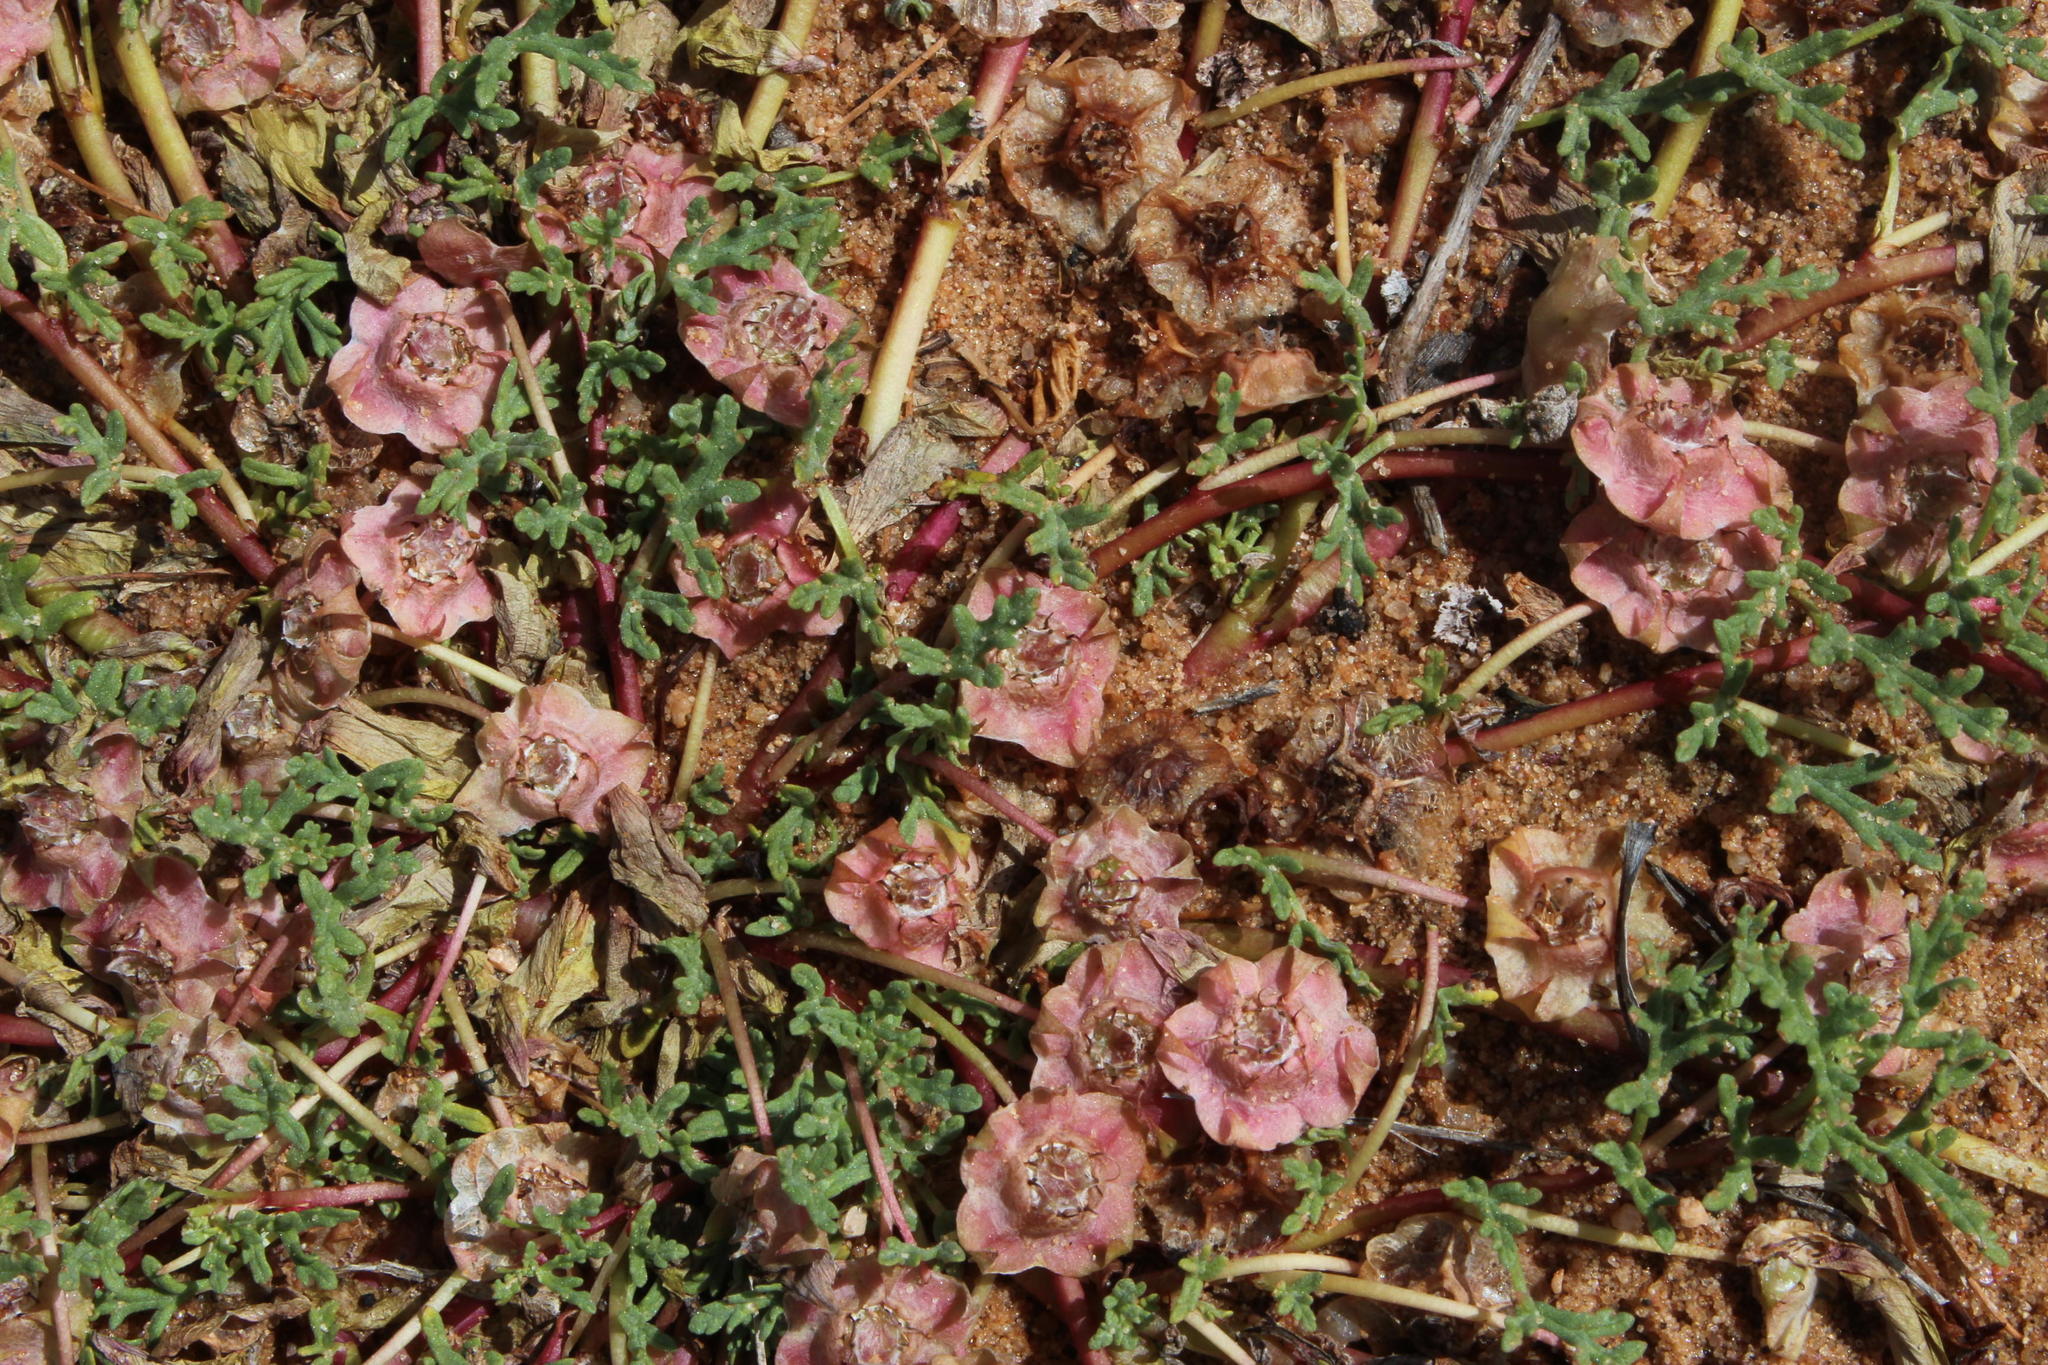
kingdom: Plantae
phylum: Tracheophyta
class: Magnoliopsida
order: Malvales
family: Neuradaceae
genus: Grielum
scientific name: Grielum humifusum
